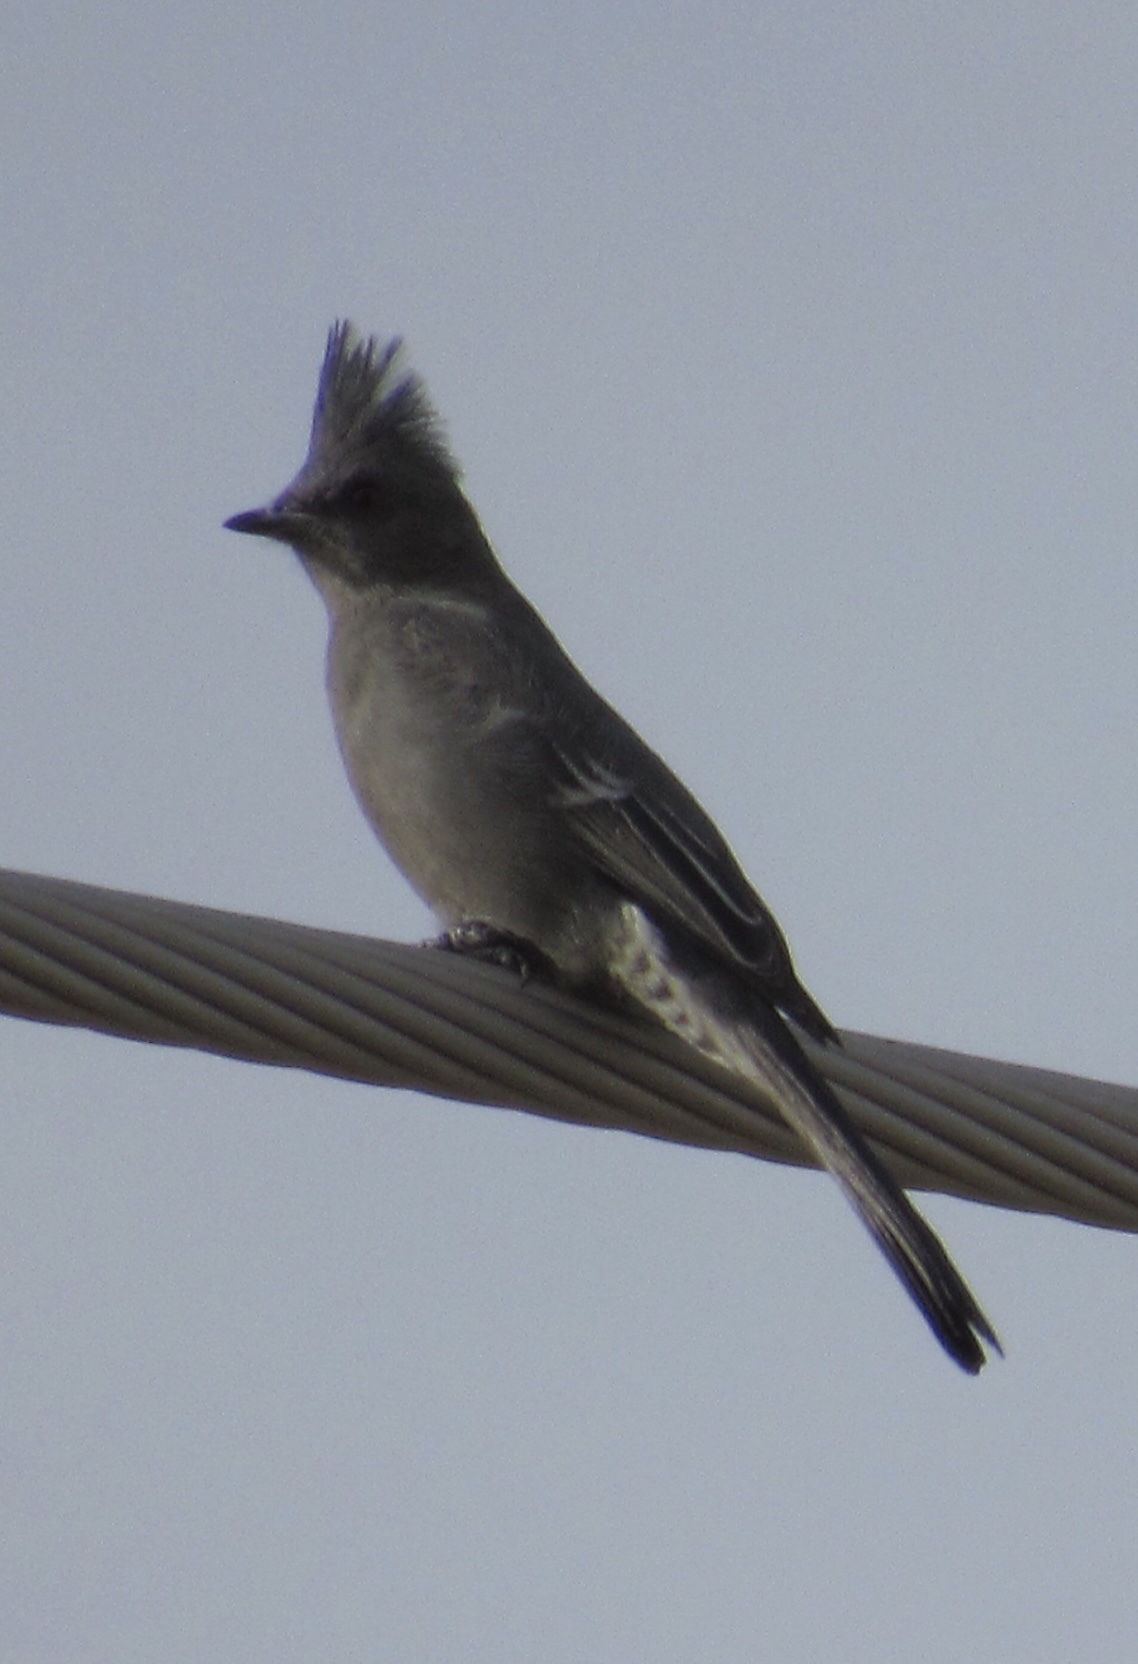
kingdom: Animalia
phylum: Chordata
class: Aves
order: Passeriformes
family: Ptilogonatidae
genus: Phainopepla
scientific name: Phainopepla nitens
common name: Phainopepla
